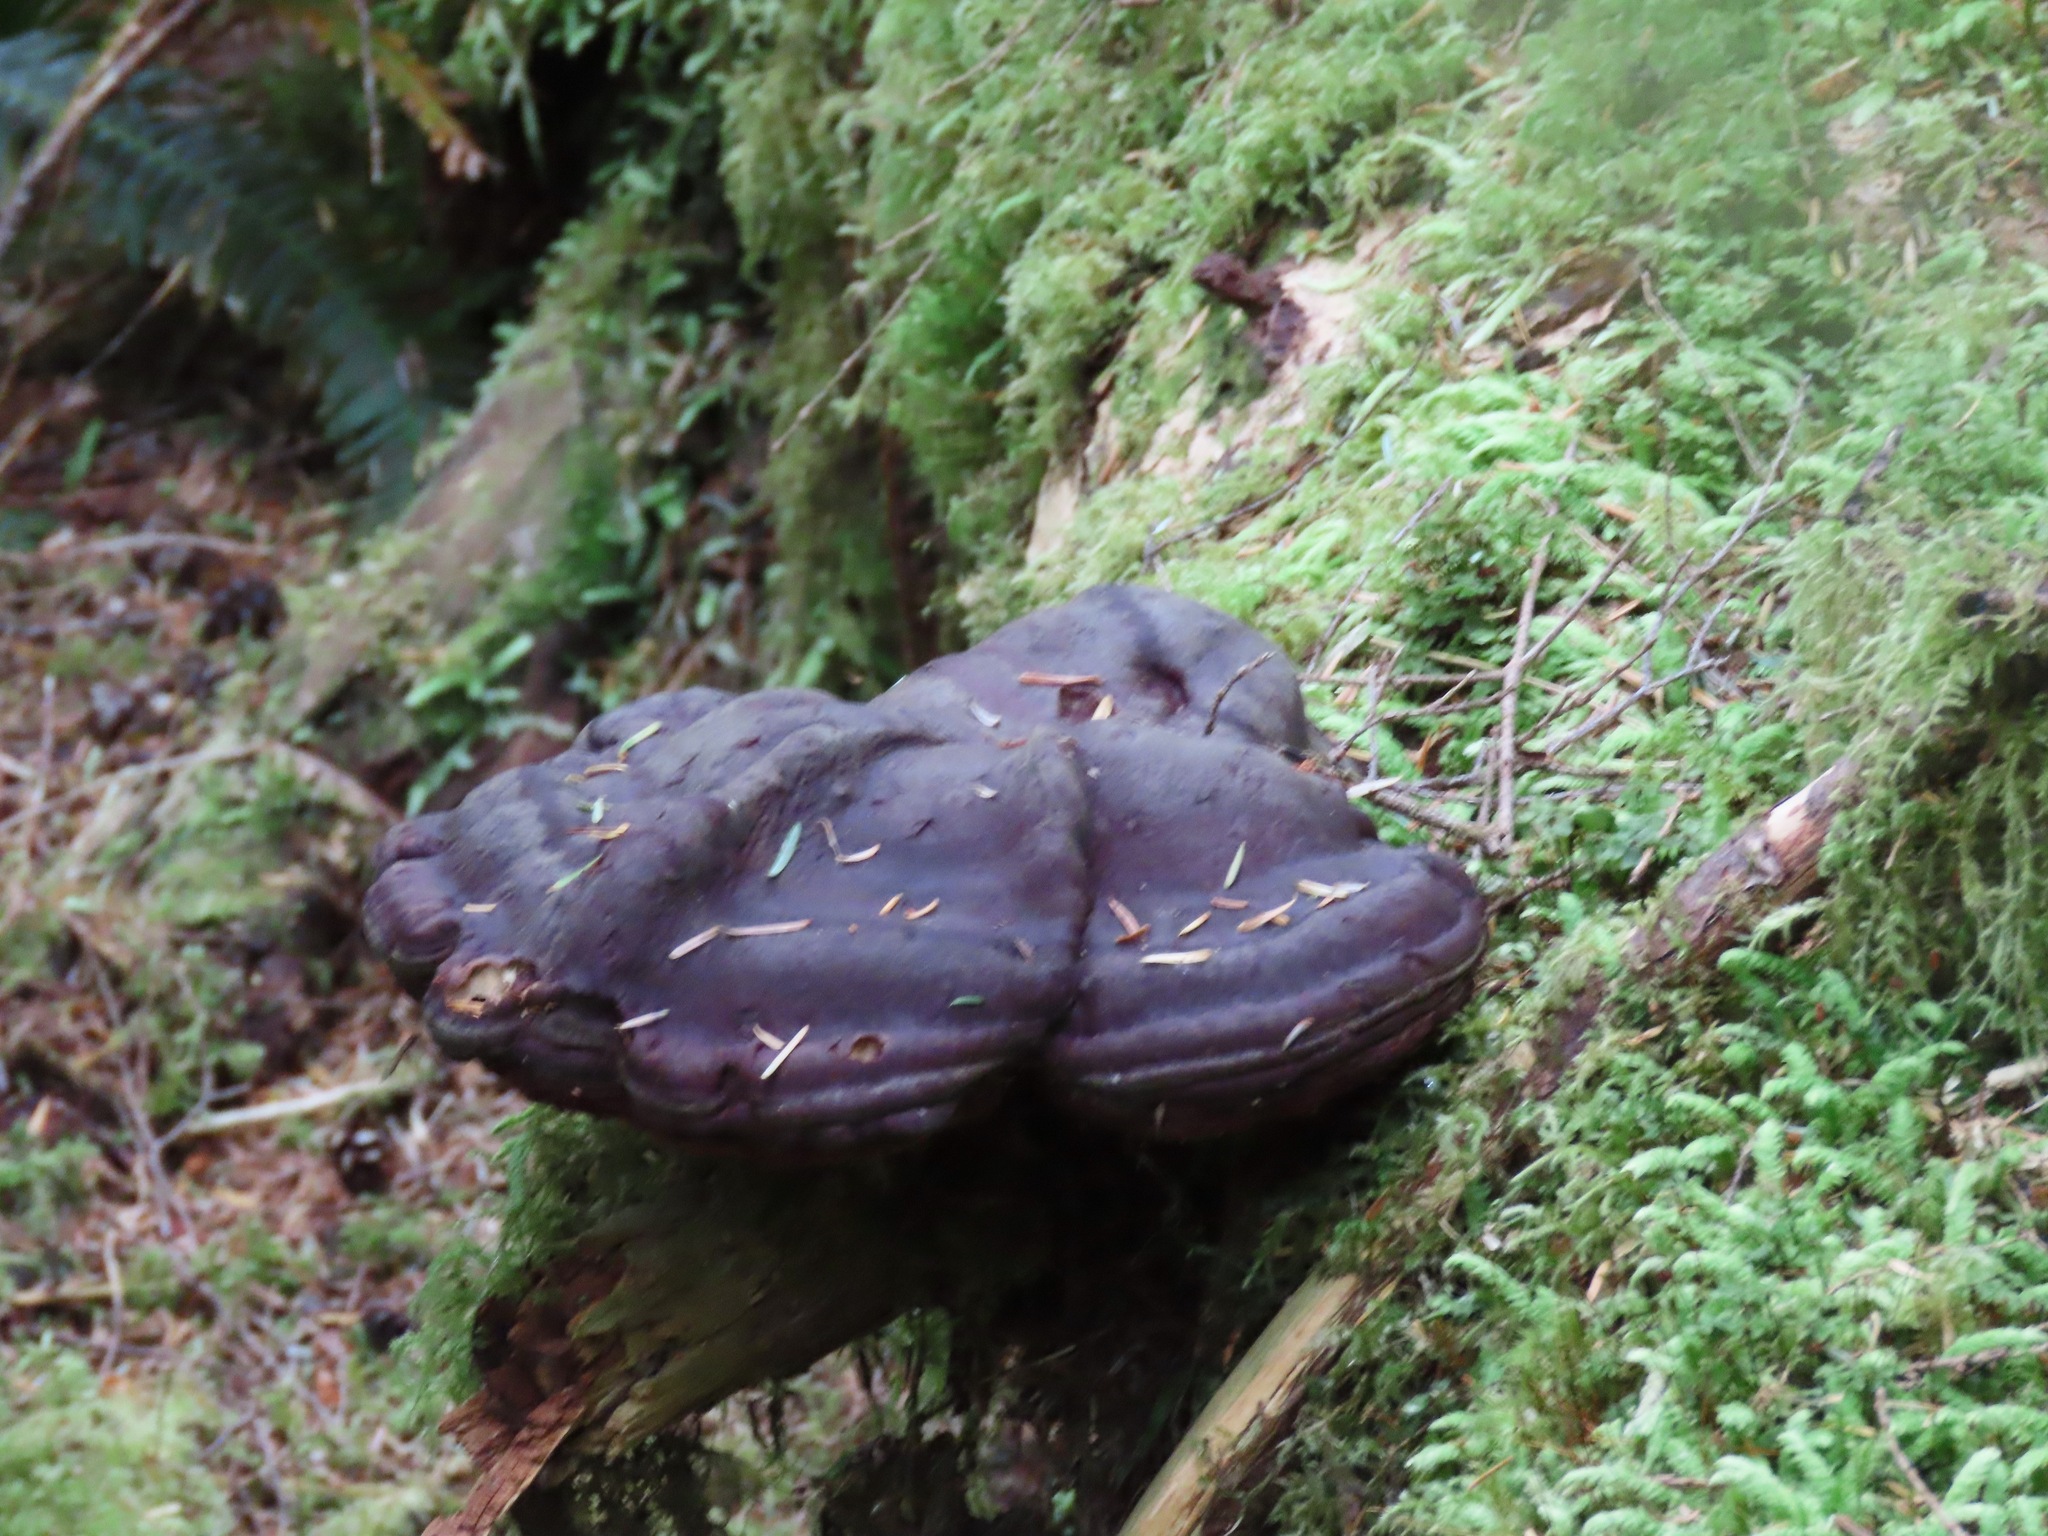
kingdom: Fungi
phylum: Basidiomycota
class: Agaricomycetes
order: Polyporales
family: Polyporaceae
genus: Ganoderma
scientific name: Ganoderma oregonense
